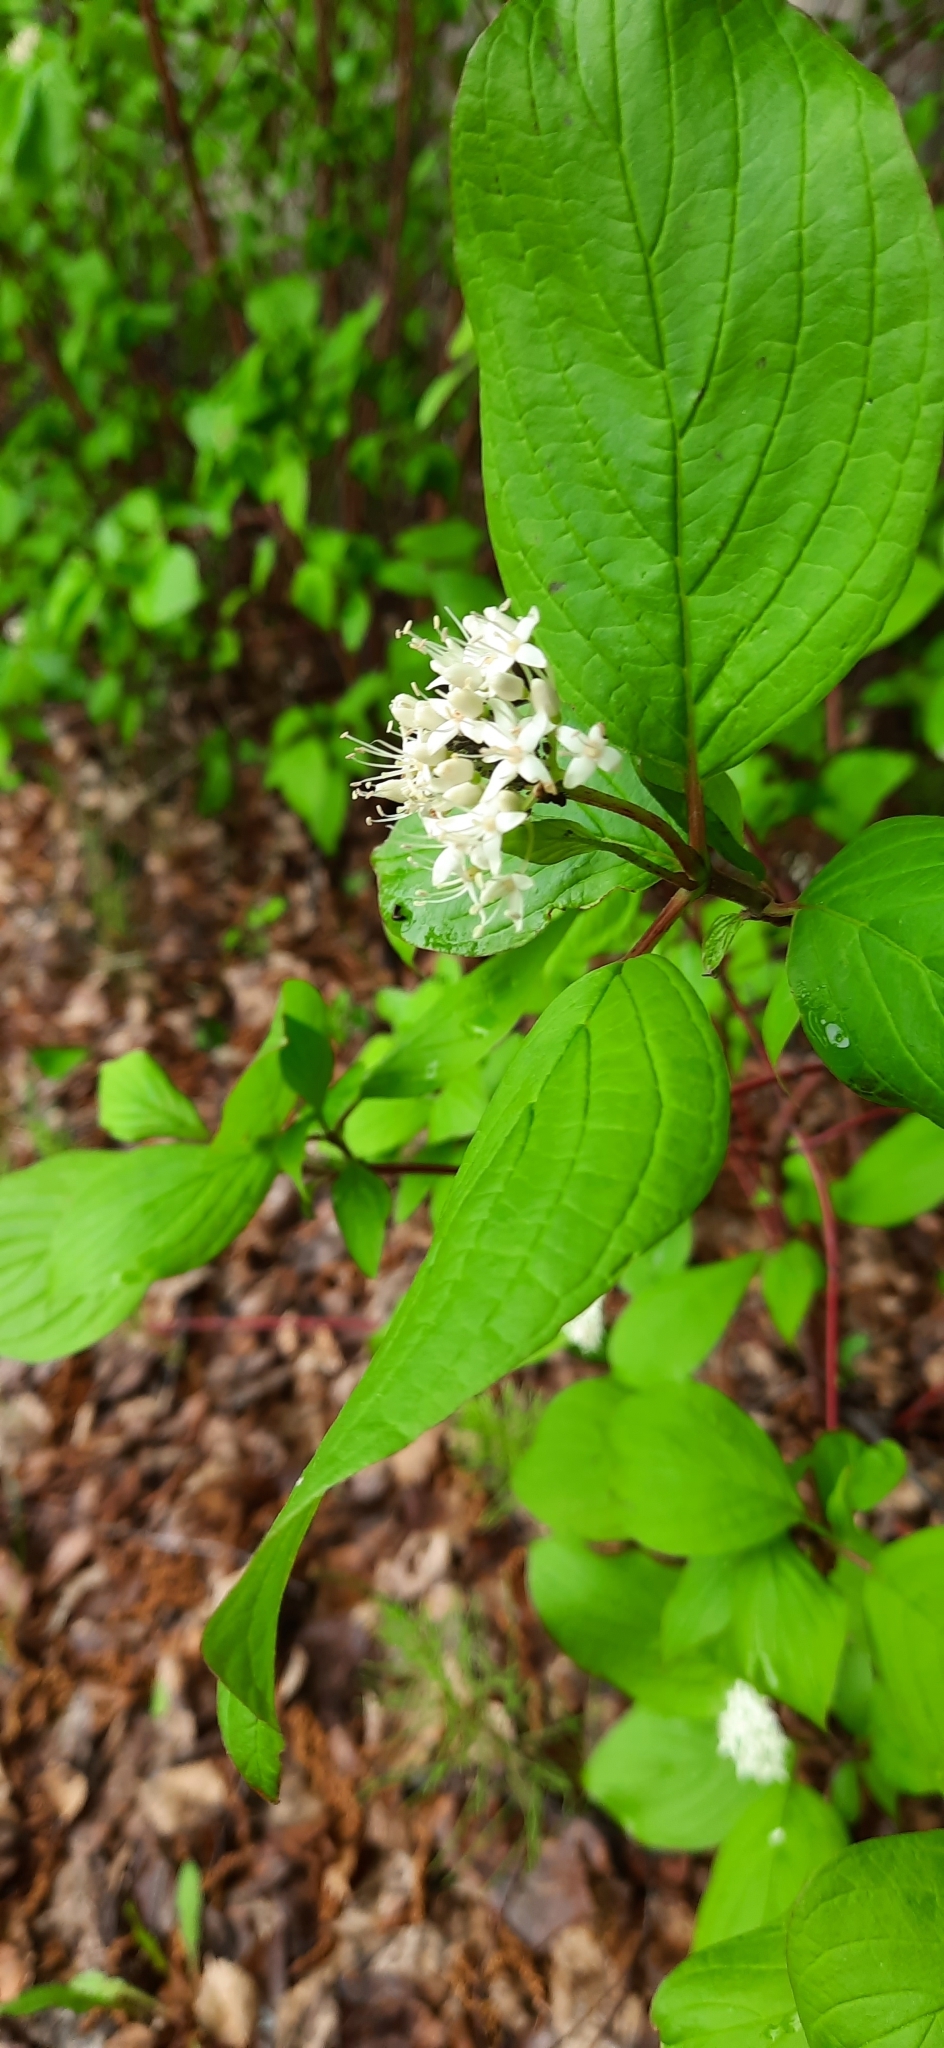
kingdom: Plantae
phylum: Tracheophyta
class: Magnoliopsida
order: Cornales
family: Cornaceae
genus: Cornus
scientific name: Cornus alba
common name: White dogwood
